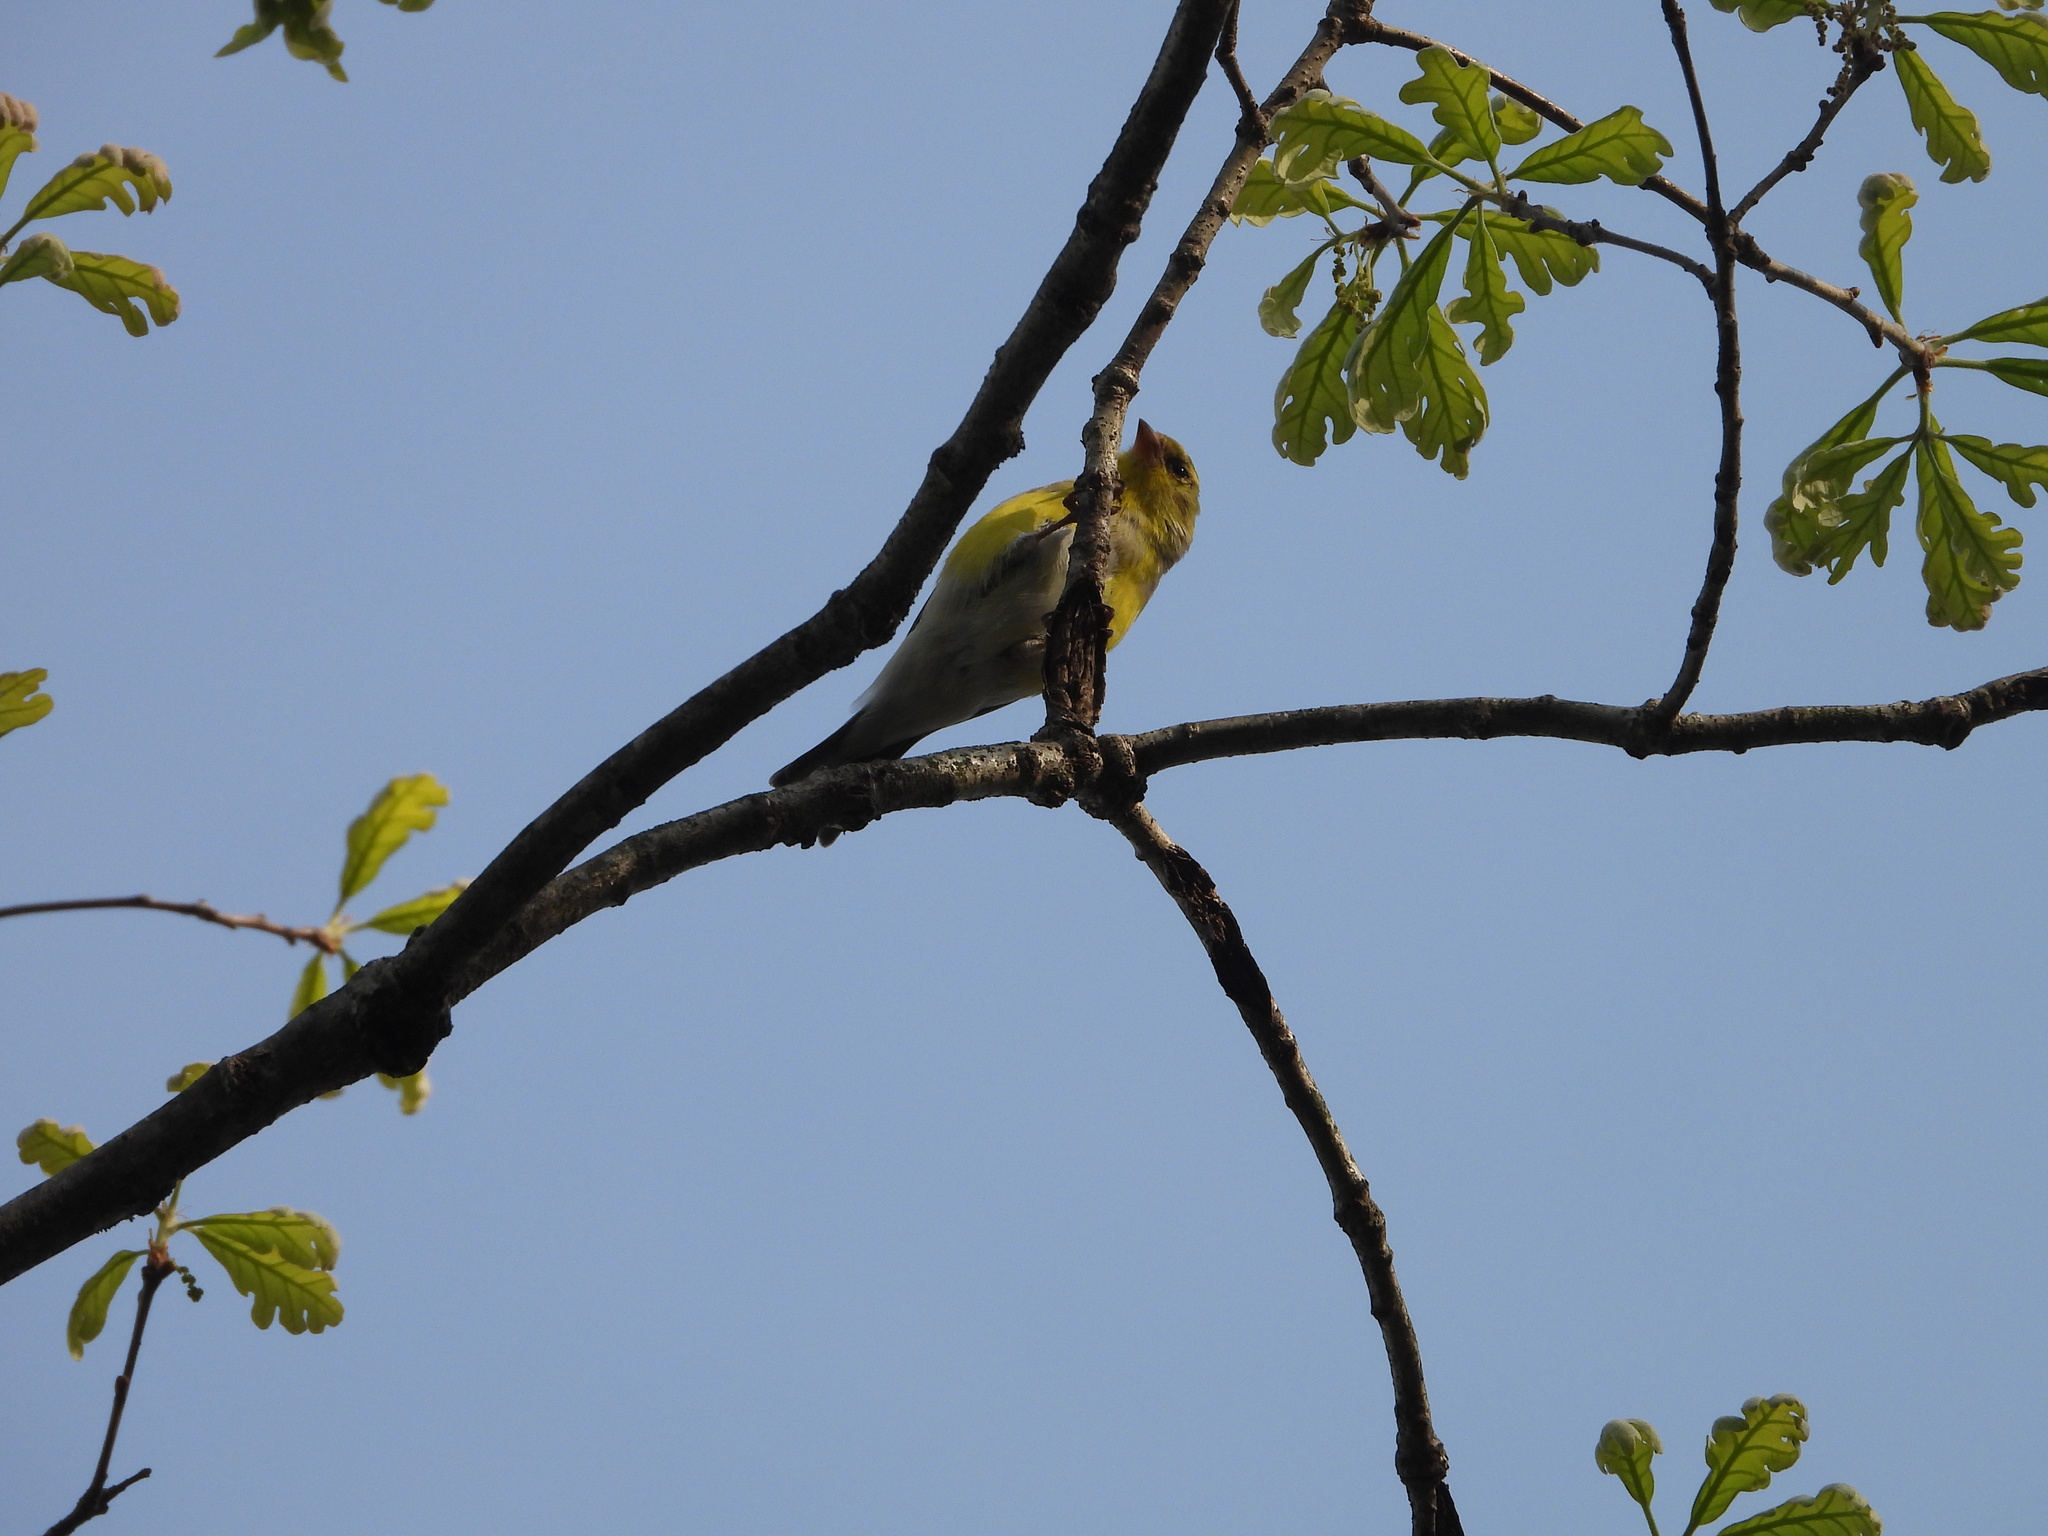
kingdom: Animalia
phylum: Chordata
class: Aves
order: Passeriformes
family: Fringillidae
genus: Spinus
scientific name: Spinus tristis
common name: American goldfinch
